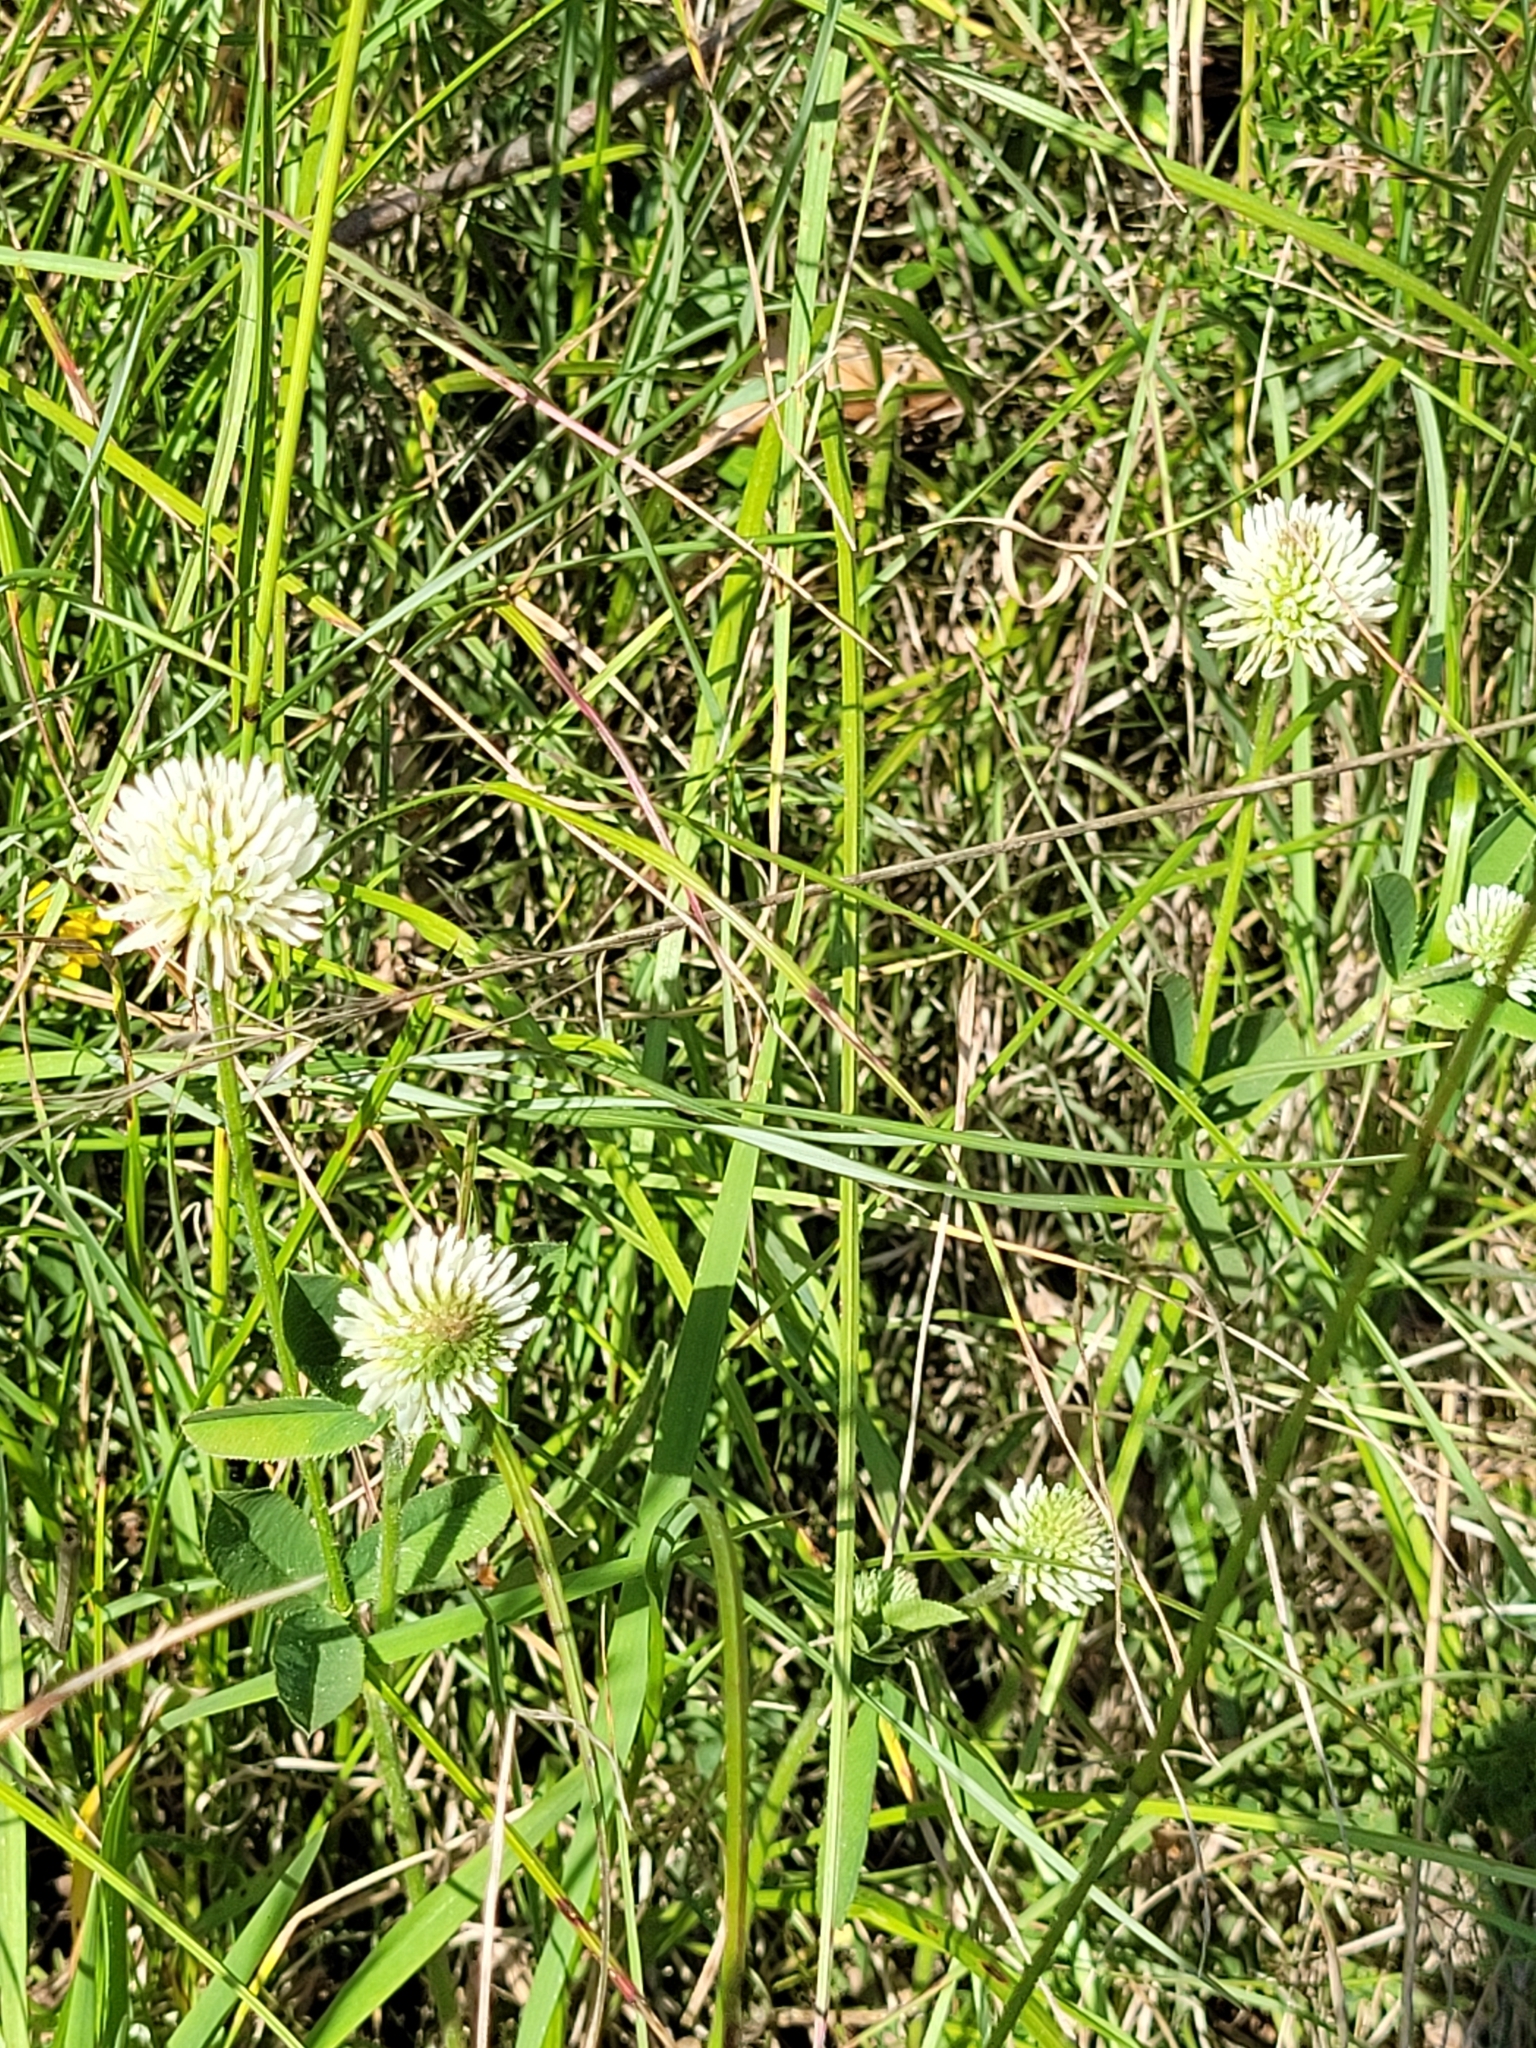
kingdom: Plantae
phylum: Tracheophyta
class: Magnoliopsida
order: Fabales
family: Fabaceae
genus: Trifolium
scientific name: Trifolium montanum
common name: Mountain clover
